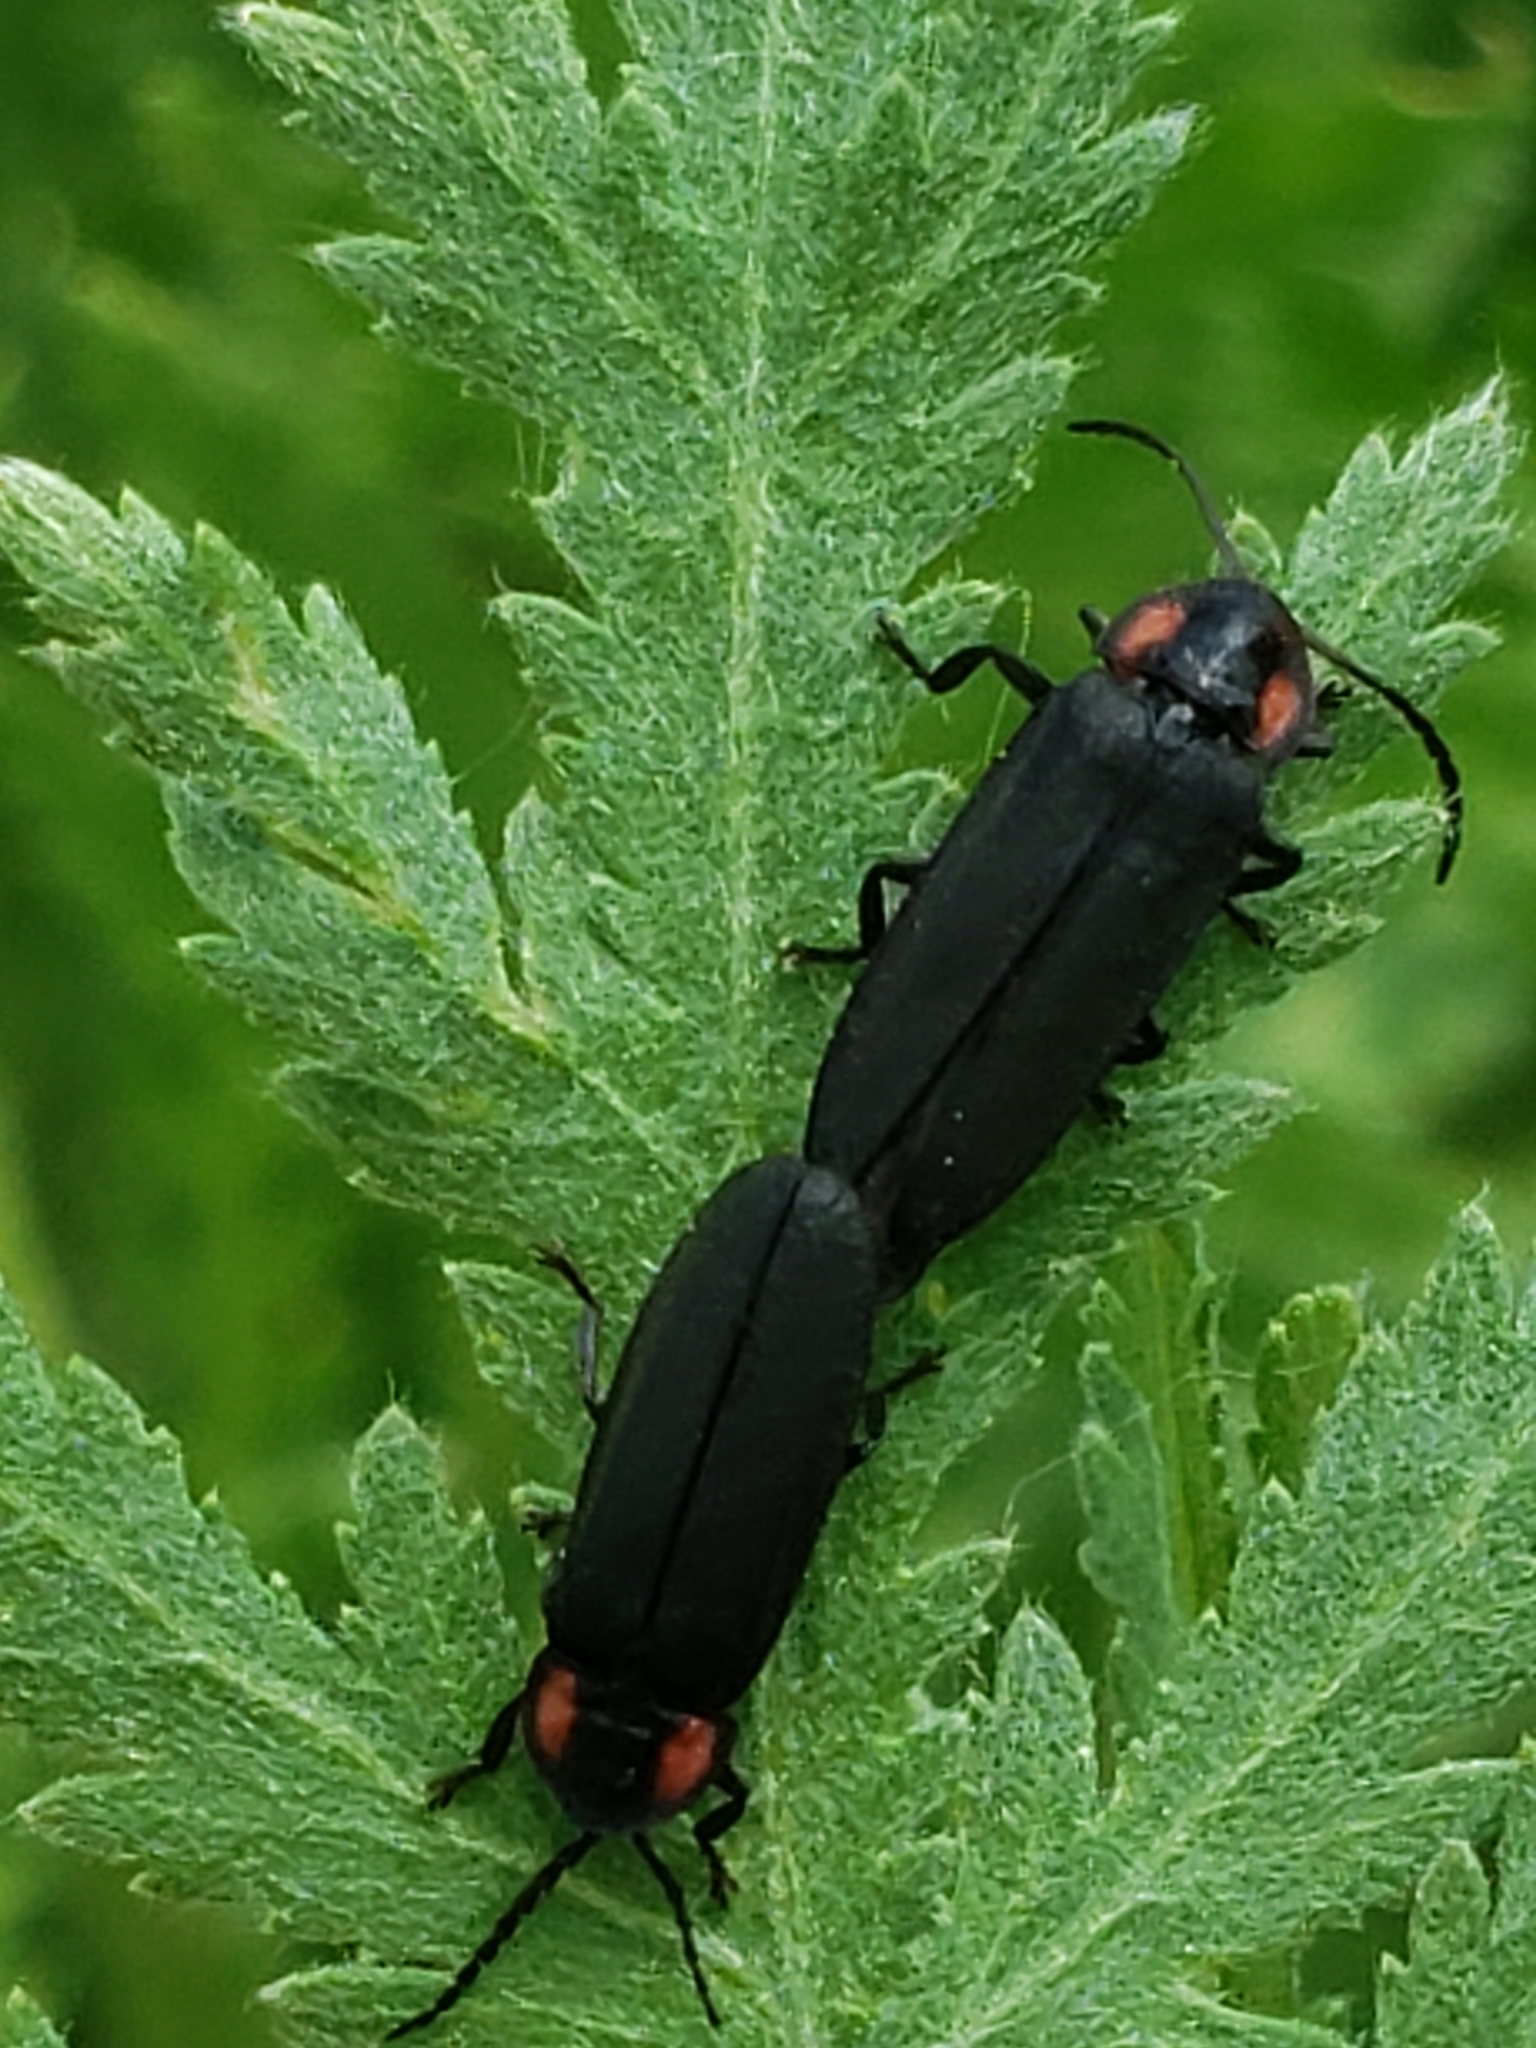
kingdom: Animalia
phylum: Arthropoda
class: Insecta
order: Coleoptera
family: Lampyridae
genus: Pyropyga
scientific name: Pyropyga nigricans
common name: Dark firefly
